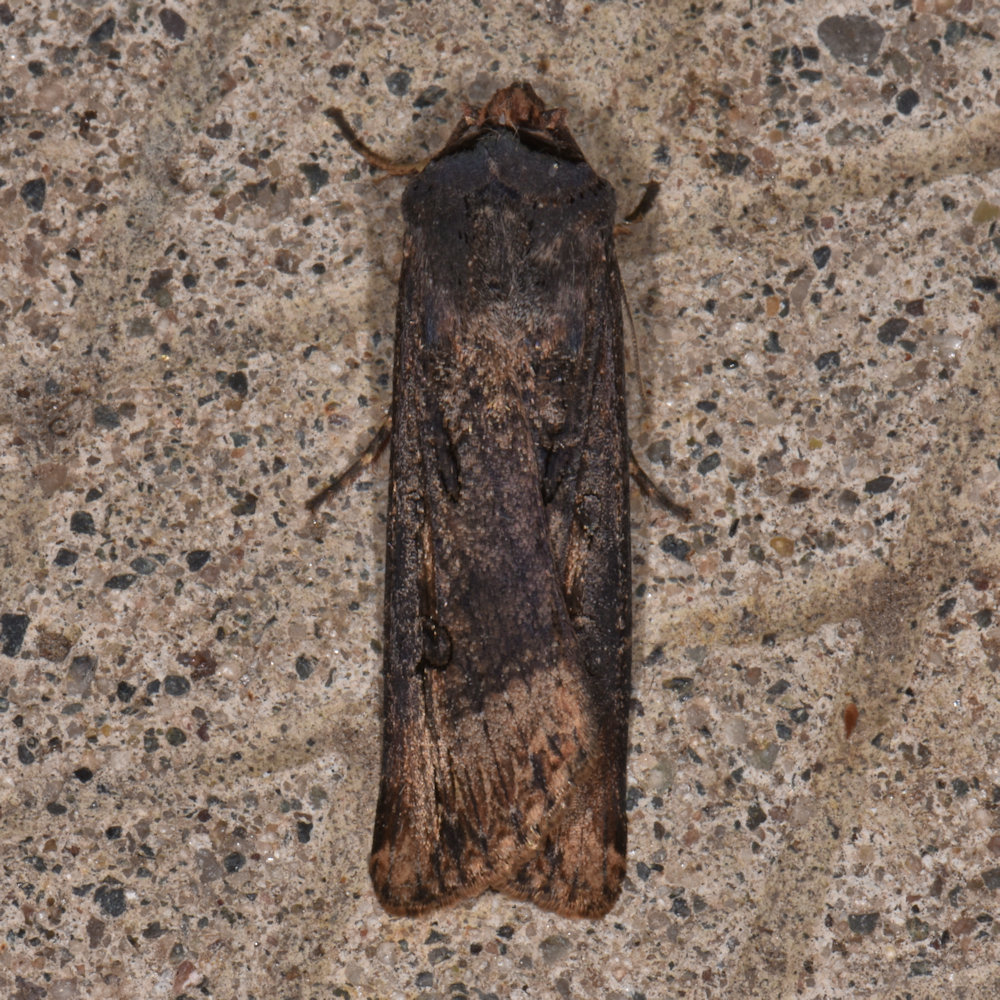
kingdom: Animalia
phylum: Arthropoda
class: Insecta
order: Lepidoptera
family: Noctuidae
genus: Agrotis
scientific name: Agrotis ipsilon
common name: Dark sword-grass
